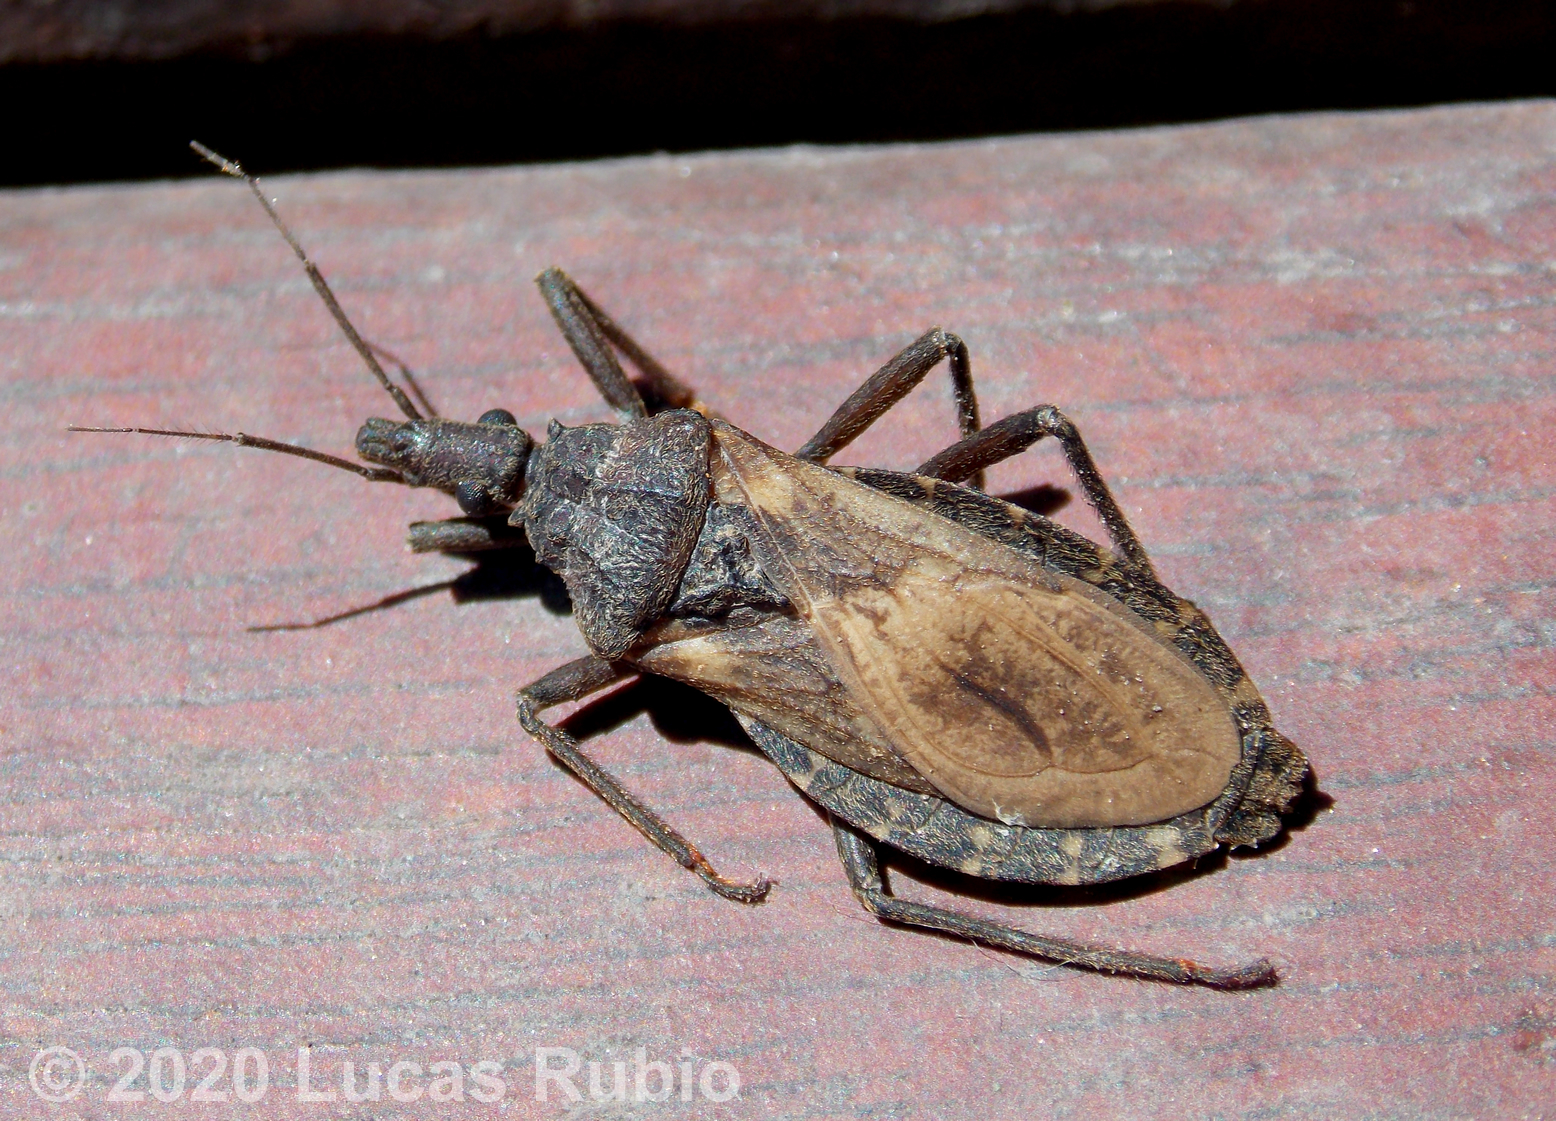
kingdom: Animalia
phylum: Arthropoda
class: Insecta
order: Hemiptera
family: Reduviidae
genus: Triatoma
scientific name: Triatoma platensis
